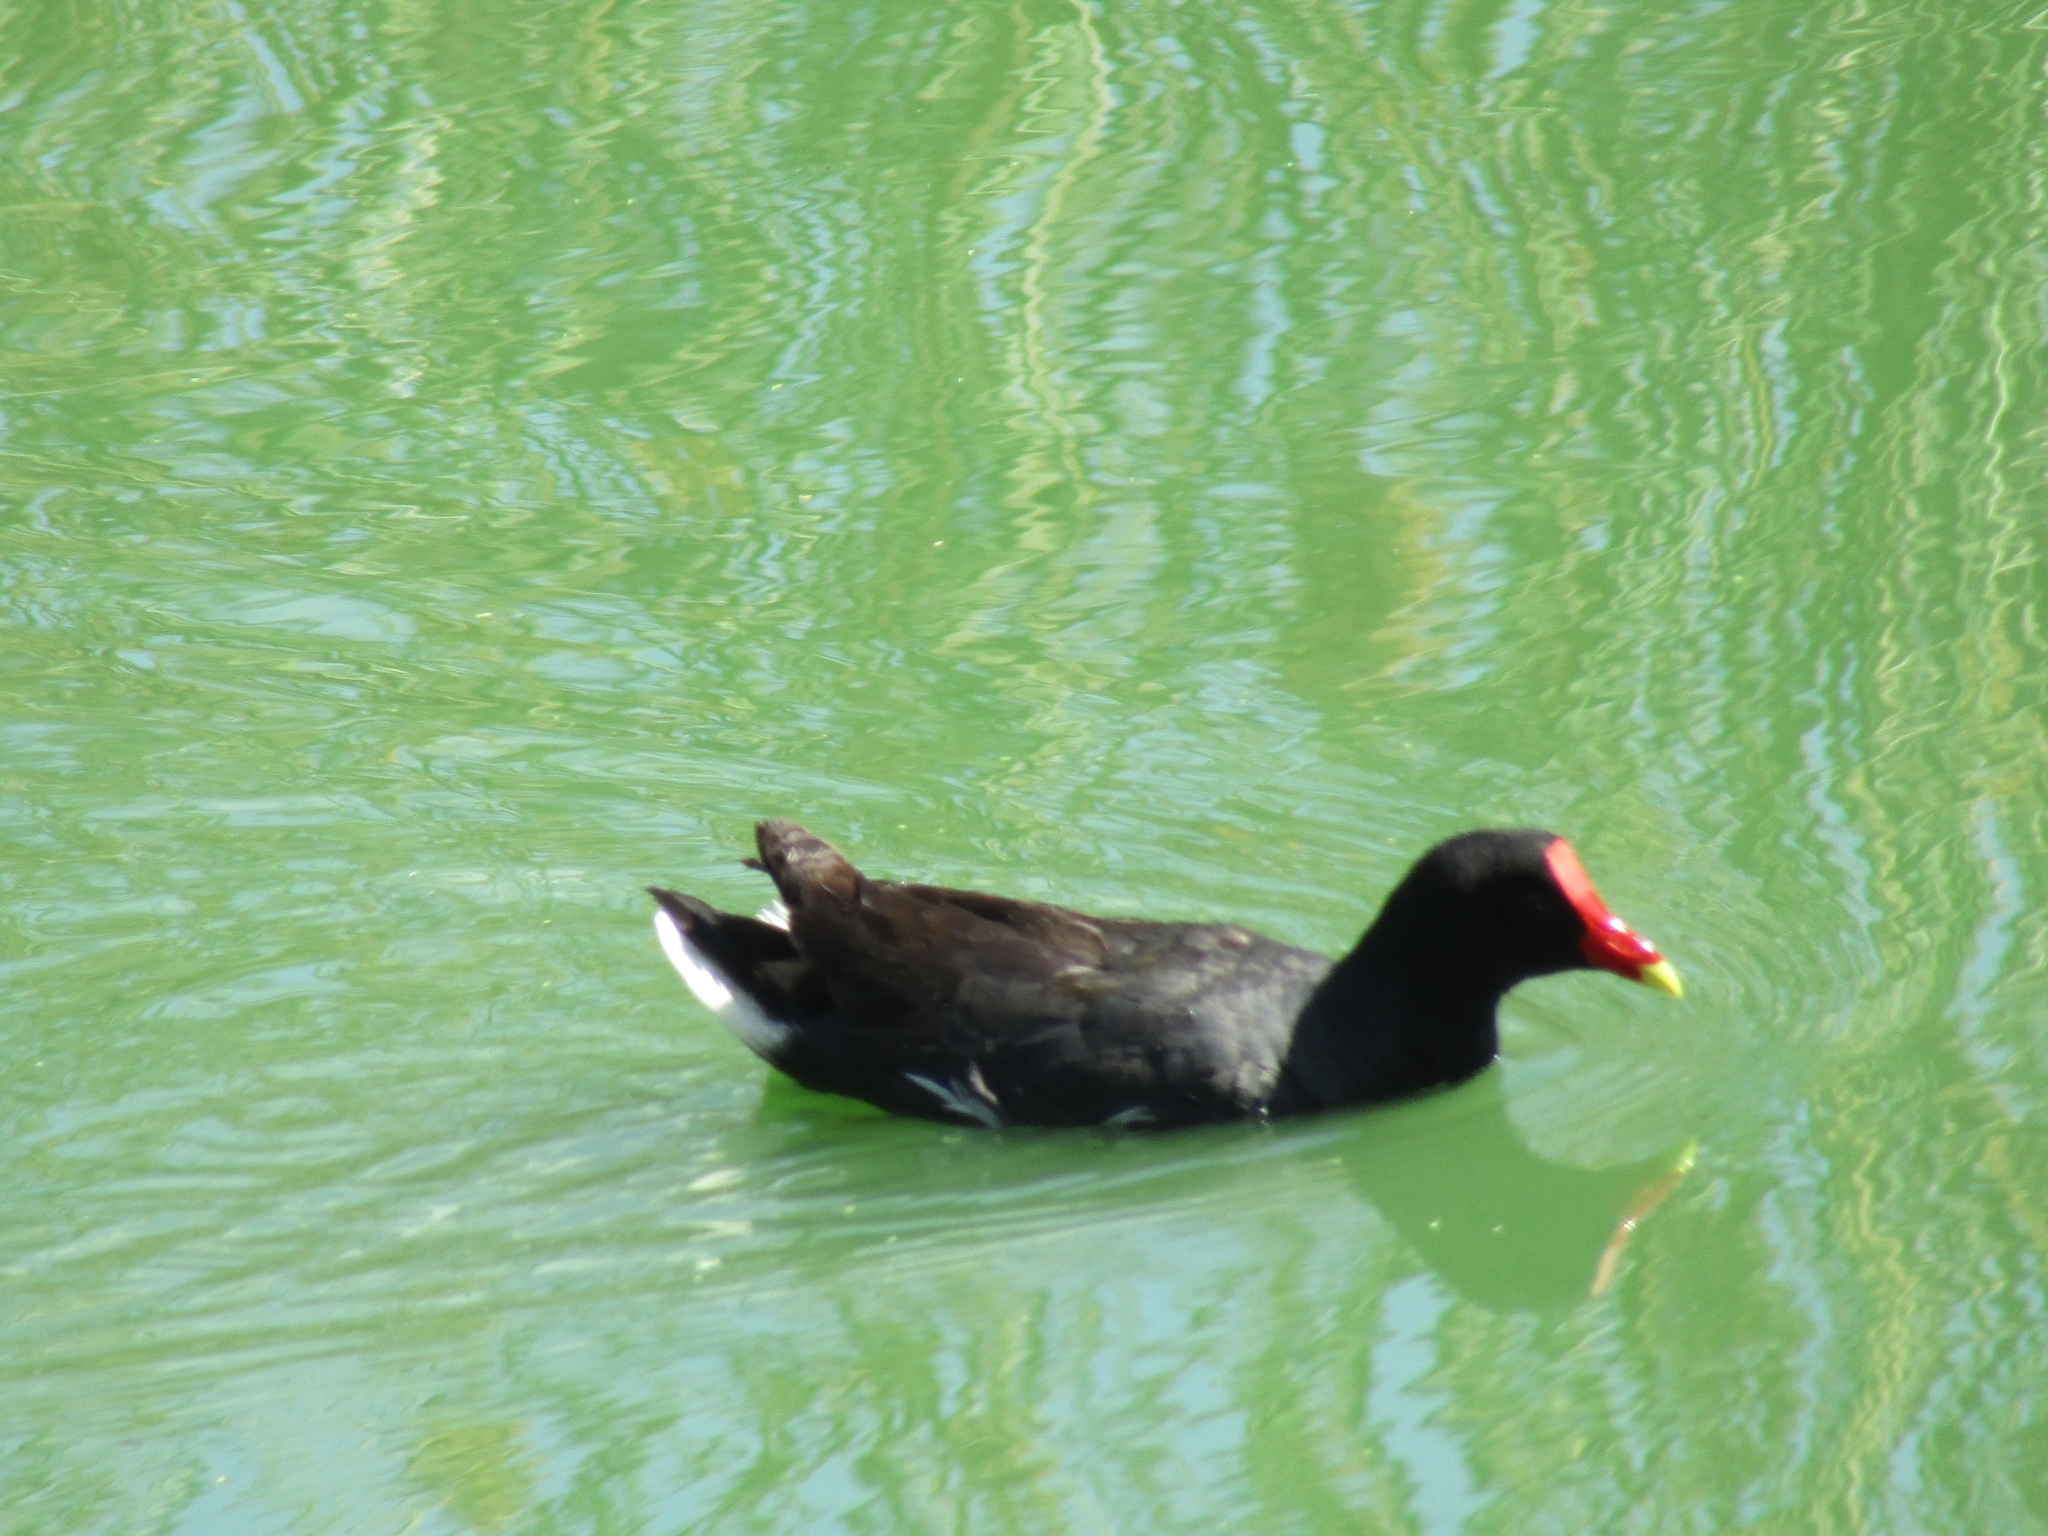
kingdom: Animalia
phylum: Chordata
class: Aves
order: Gruiformes
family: Rallidae
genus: Gallinula
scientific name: Gallinula chloropus
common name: Common moorhen
